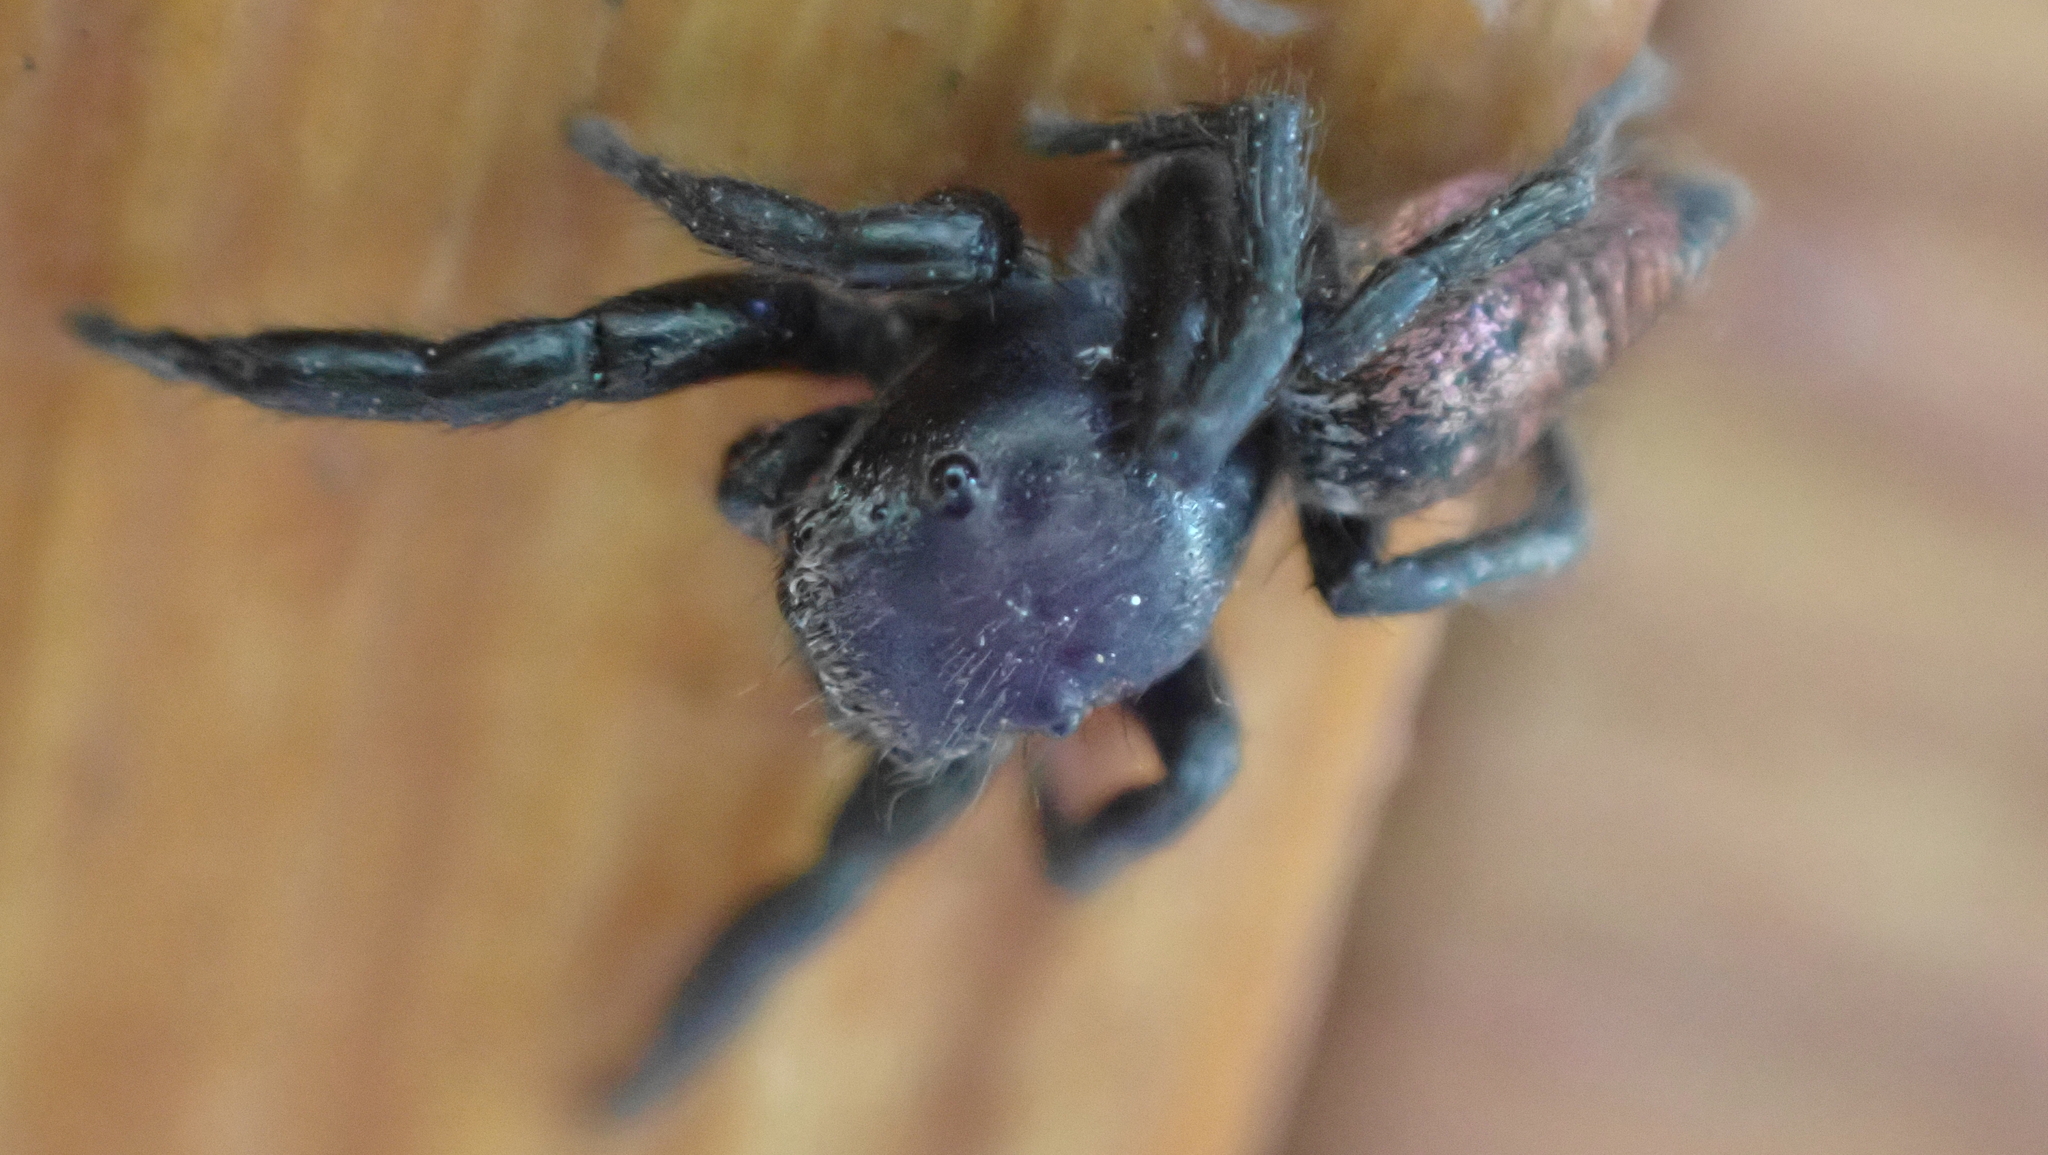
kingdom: Animalia
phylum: Arthropoda
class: Arachnida
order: Araneae
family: Salticidae
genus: Habronattus
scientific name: Habronattus decorus
